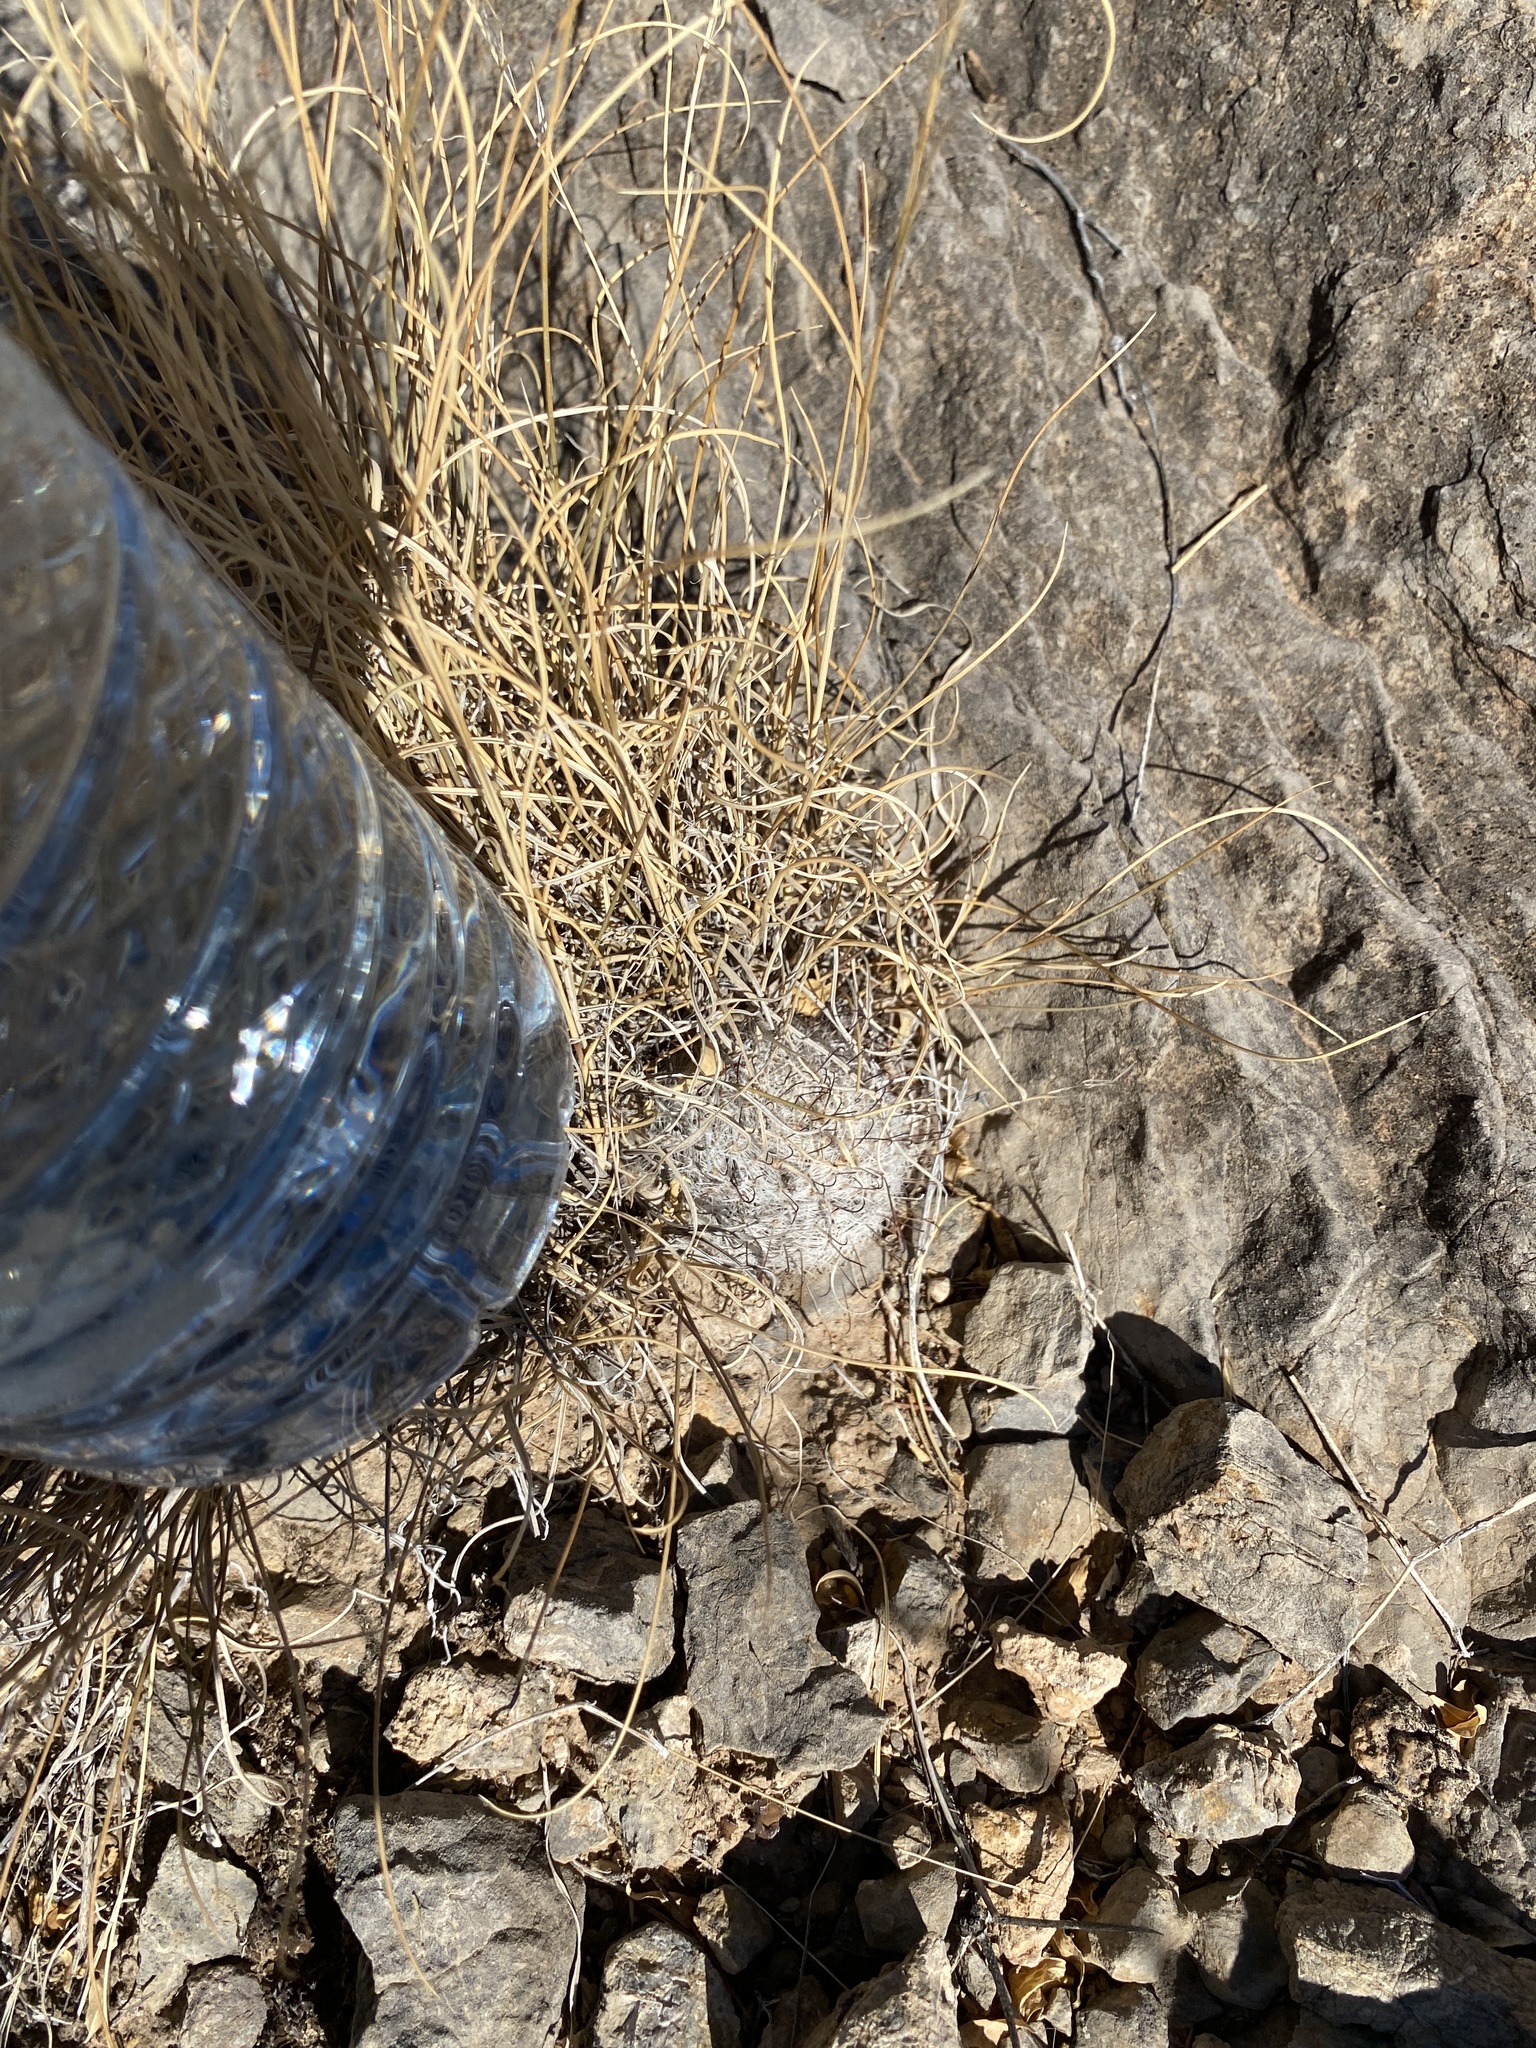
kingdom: Plantae
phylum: Tracheophyta
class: Magnoliopsida
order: Caryophyllales
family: Cactaceae
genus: Cochemiea
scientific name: Cochemiea grahamii
